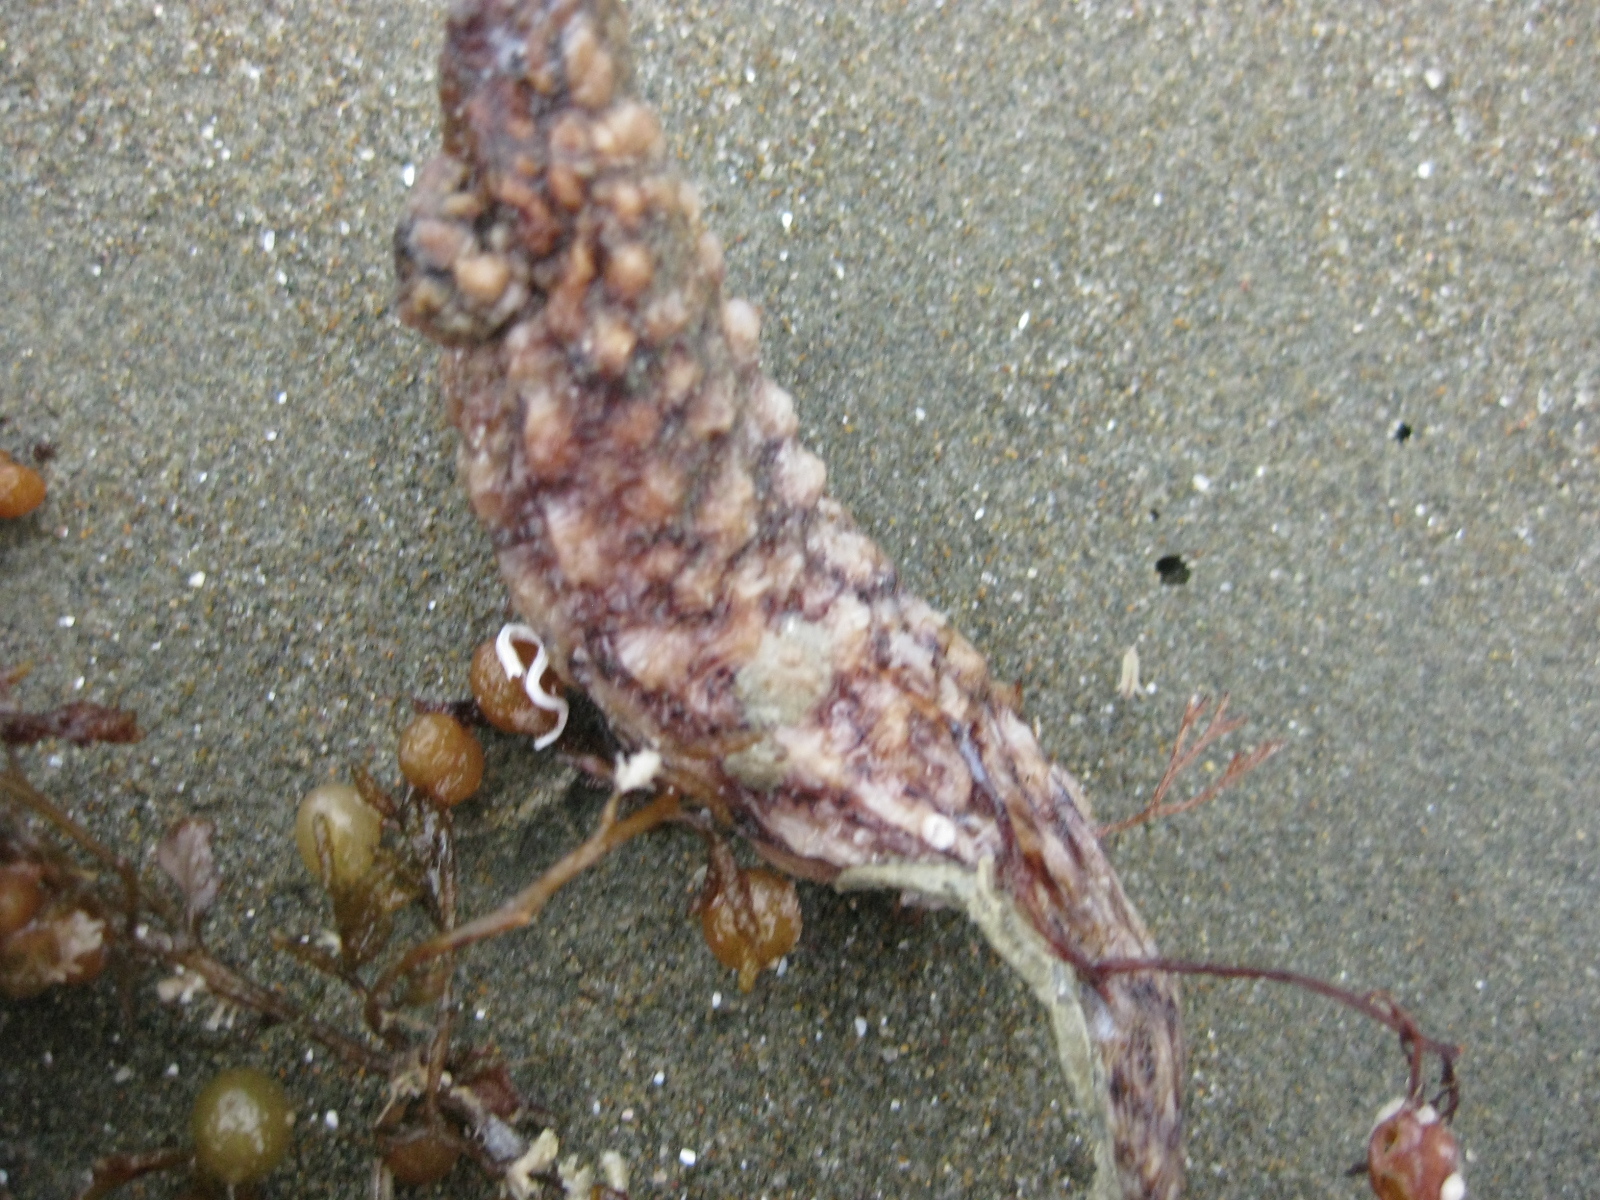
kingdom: Animalia
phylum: Chordata
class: Ascidiacea
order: Stolidobranchia
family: Styelidae
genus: Styela
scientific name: Styela clava
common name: Leathery sea squirt
